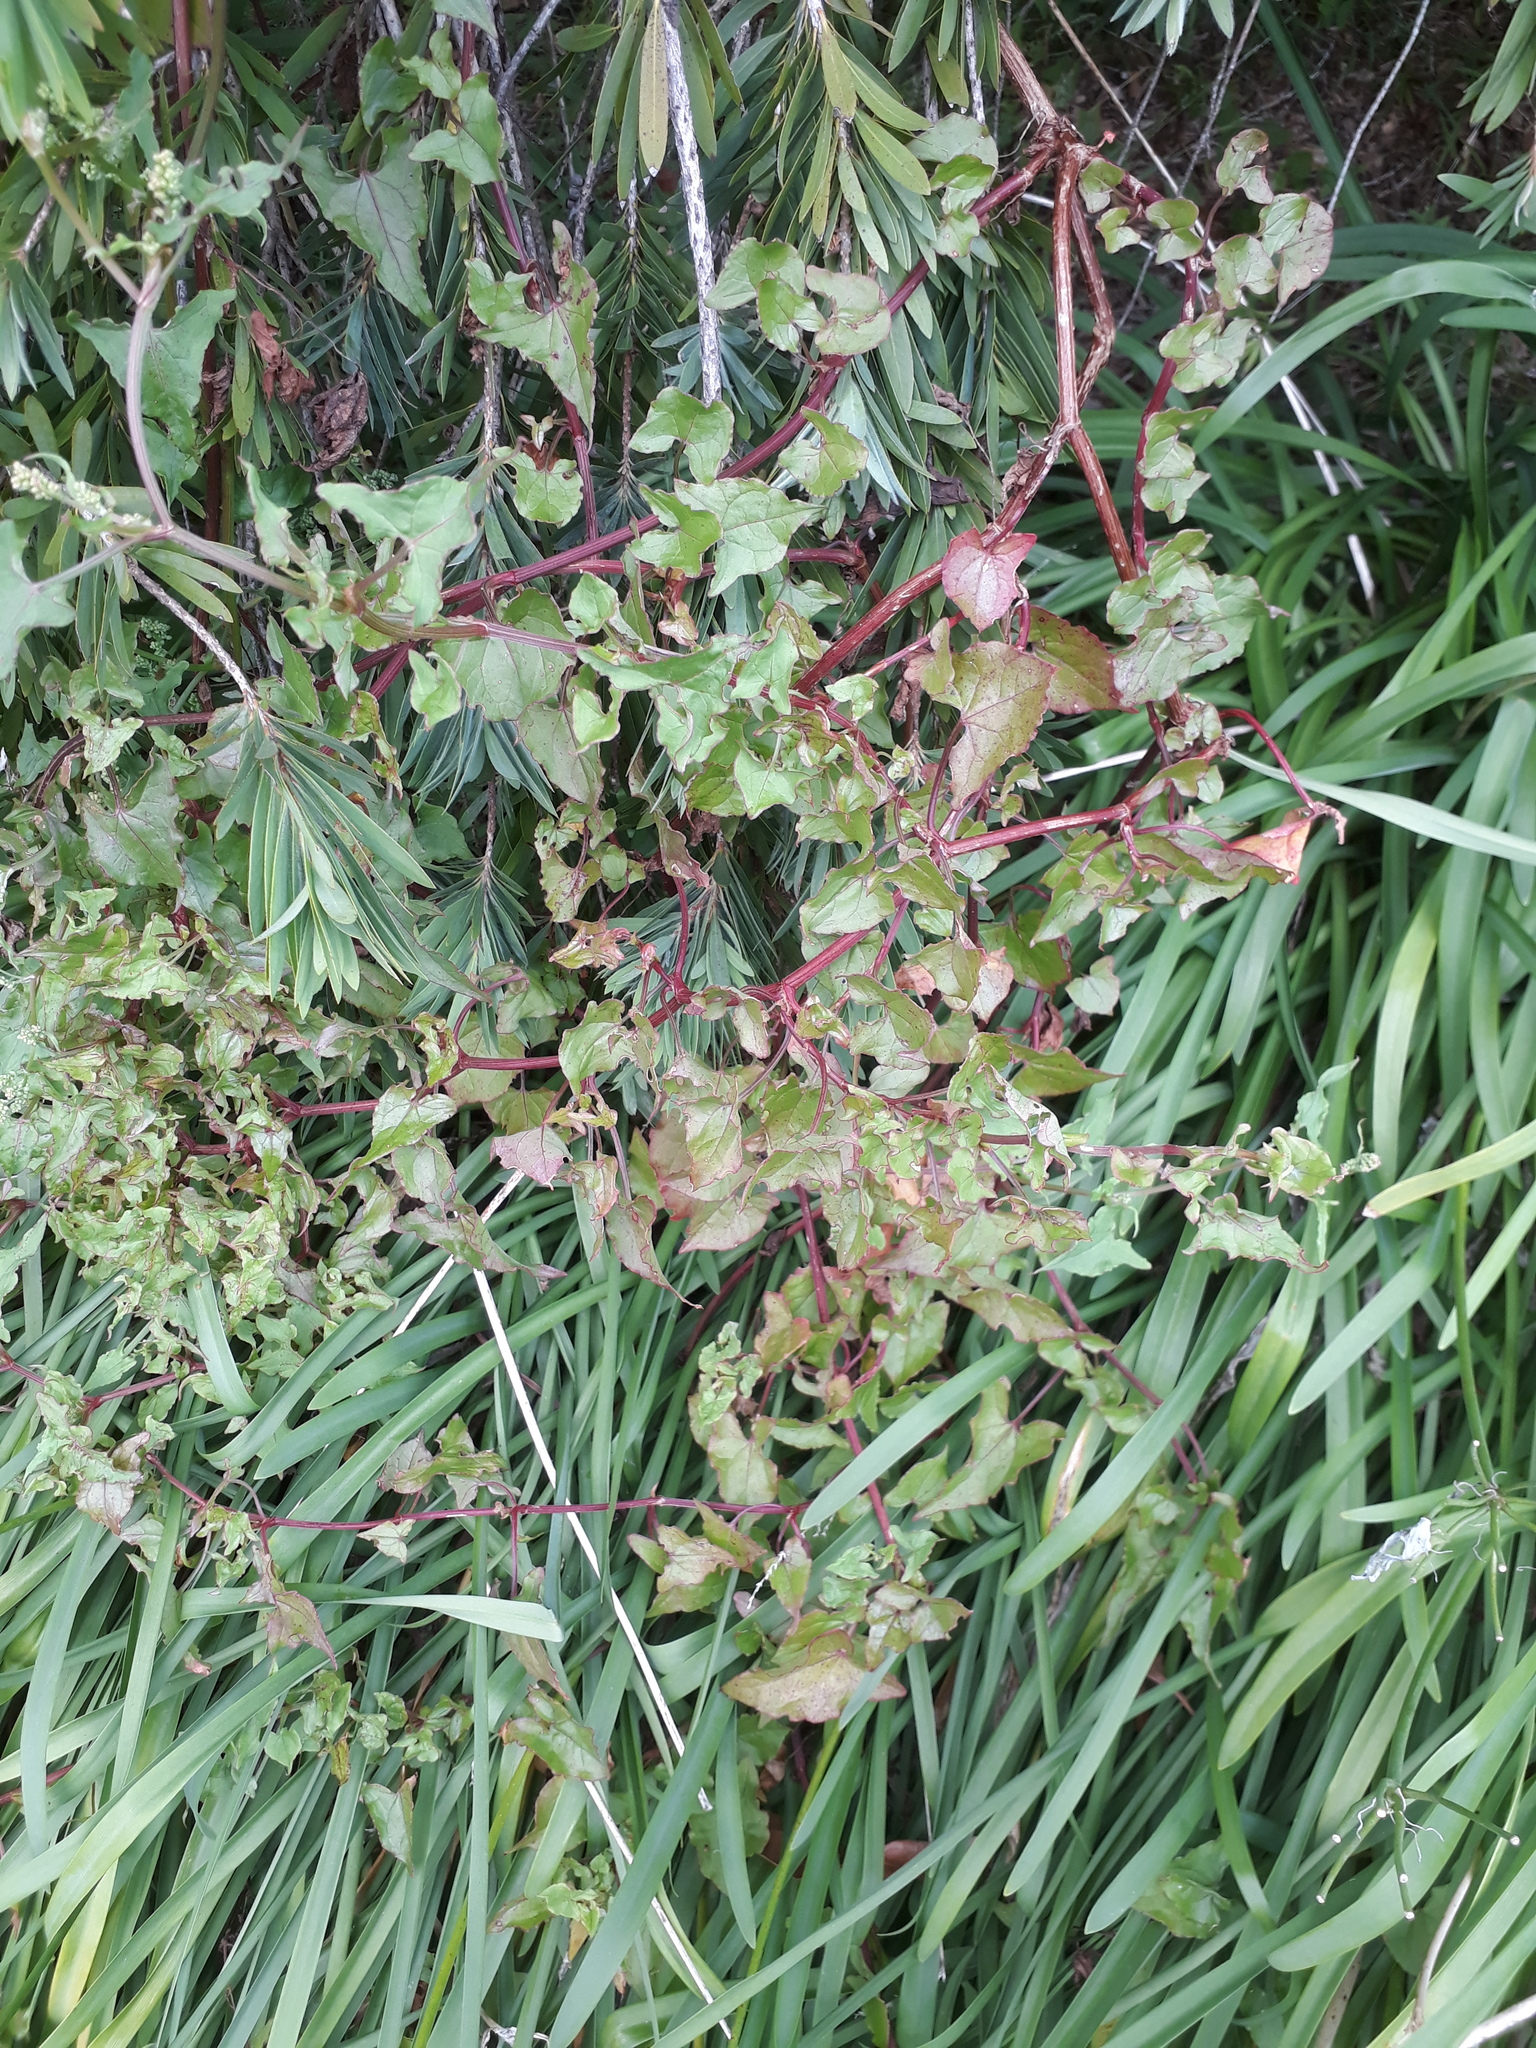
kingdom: Plantae
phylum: Tracheophyta
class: Magnoliopsida
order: Caryophyllales
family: Polygonaceae
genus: Rumex
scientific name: Rumex sagittatus
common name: Climbing dock
